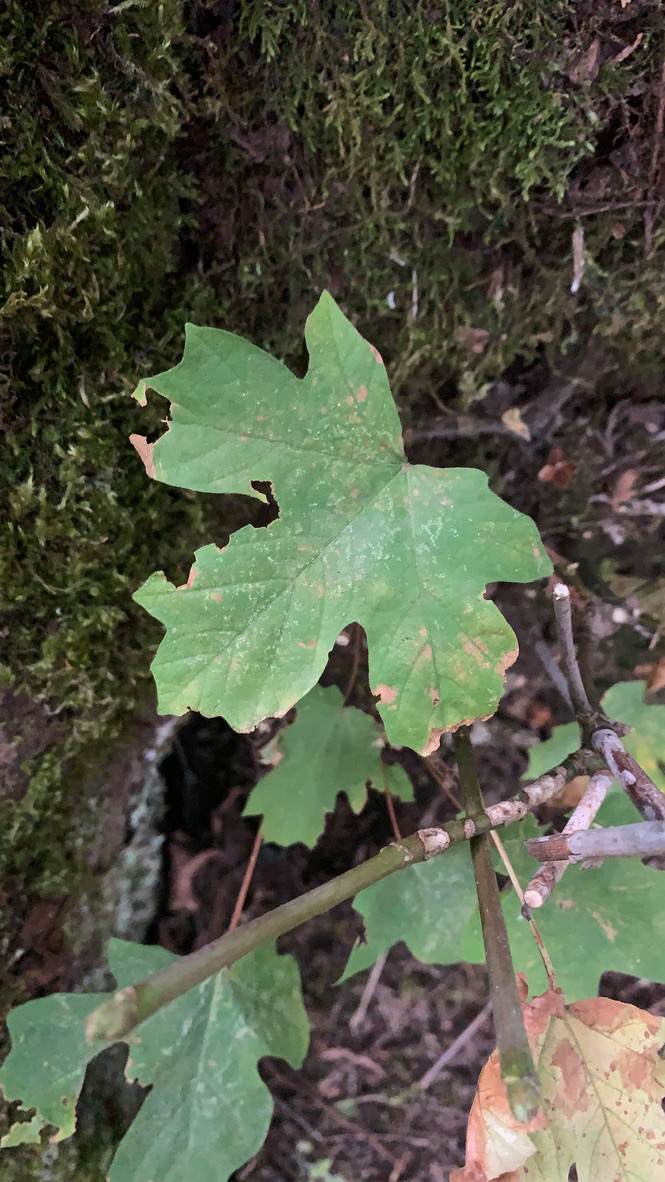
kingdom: Plantae
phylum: Tracheophyta
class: Magnoliopsida
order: Sapindales
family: Sapindaceae
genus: Acer
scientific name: Acer macrophyllum
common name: Oregon maple
